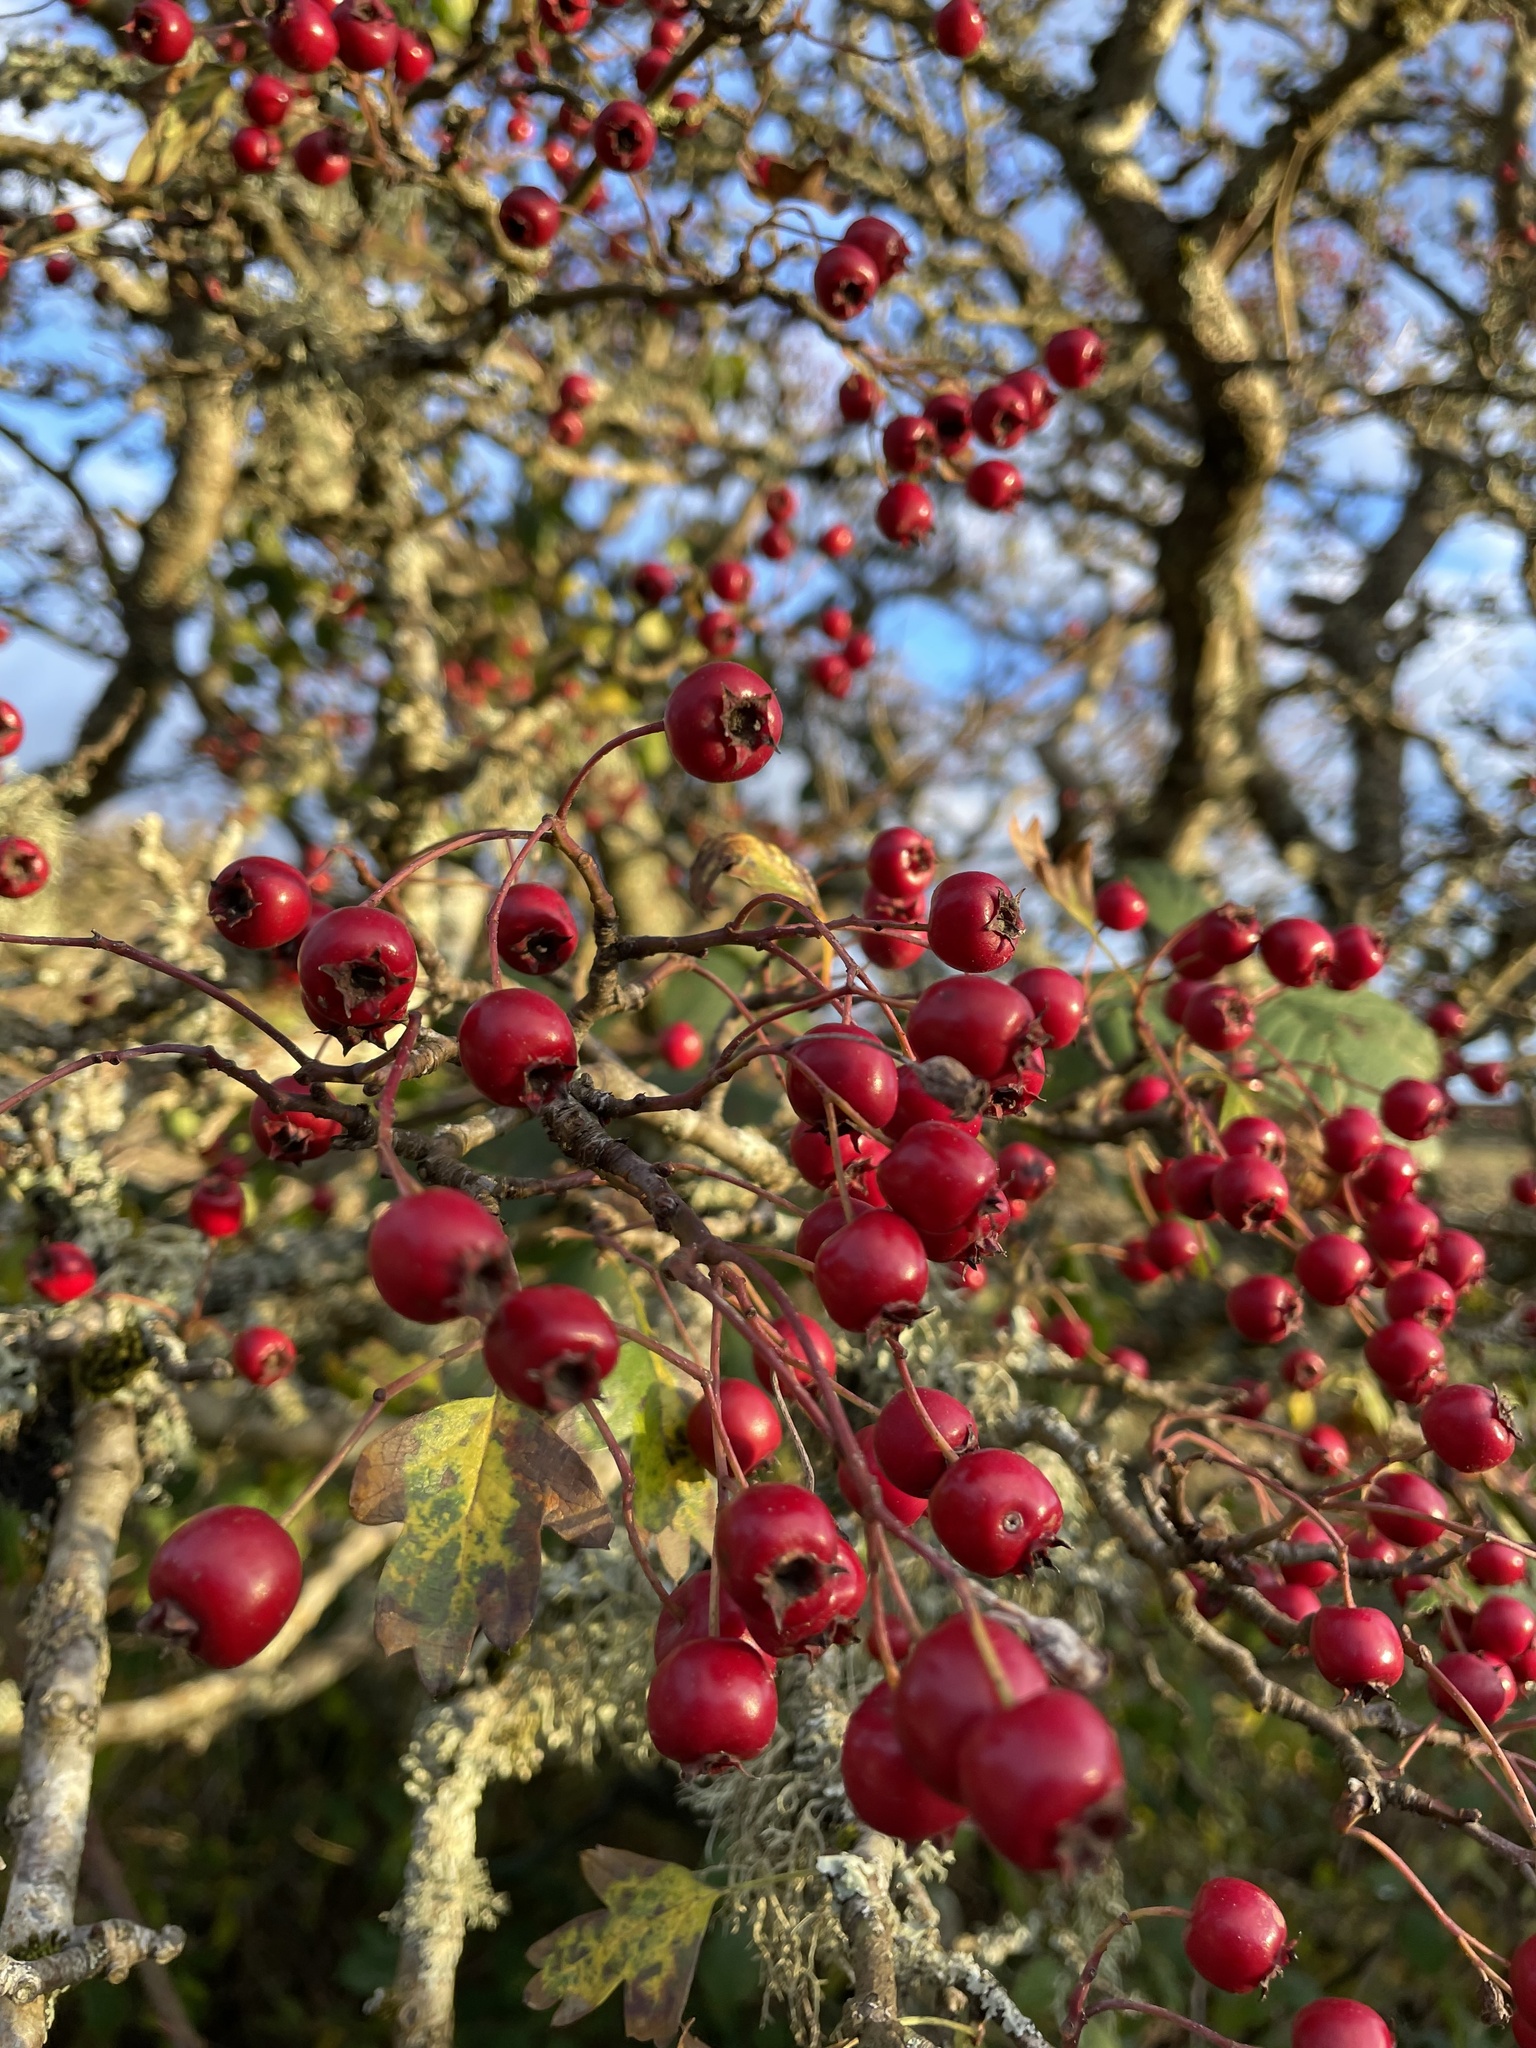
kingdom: Plantae
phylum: Tracheophyta
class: Magnoliopsida
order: Rosales
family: Rosaceae
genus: Crataegus
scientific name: Crataegus monogyna
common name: Hawthorn
